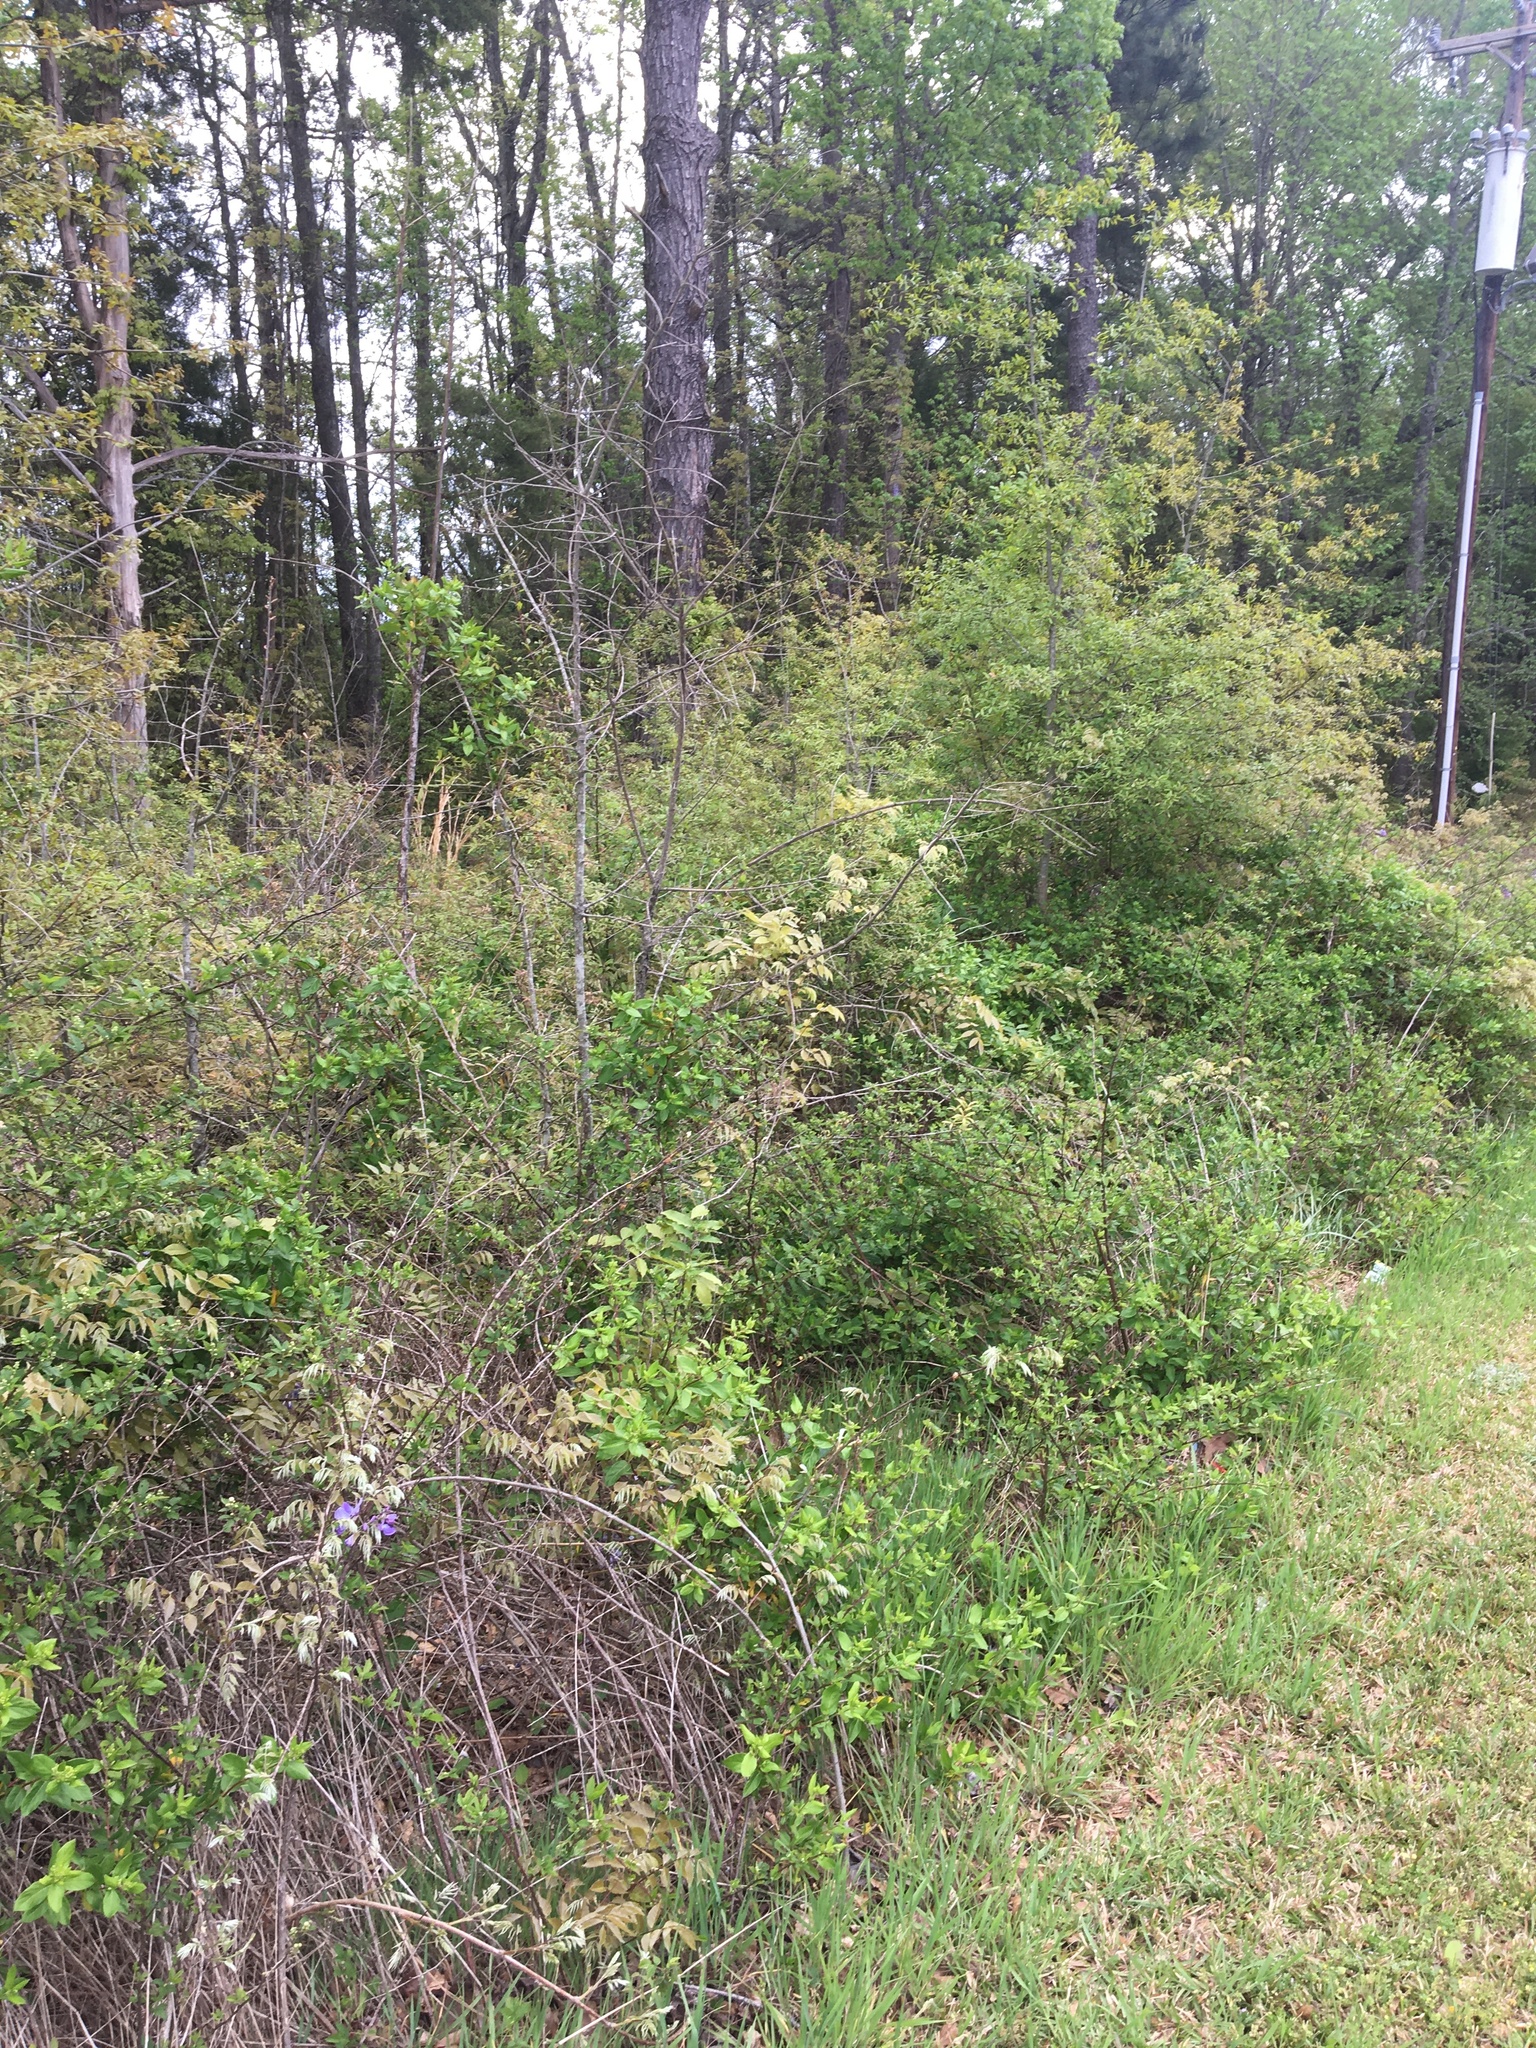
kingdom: Animalia
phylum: Chordata
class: Aves
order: Passeriformes
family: Vireonidae
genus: Vireo
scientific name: Vireo griseus
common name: White-eyed vireo
